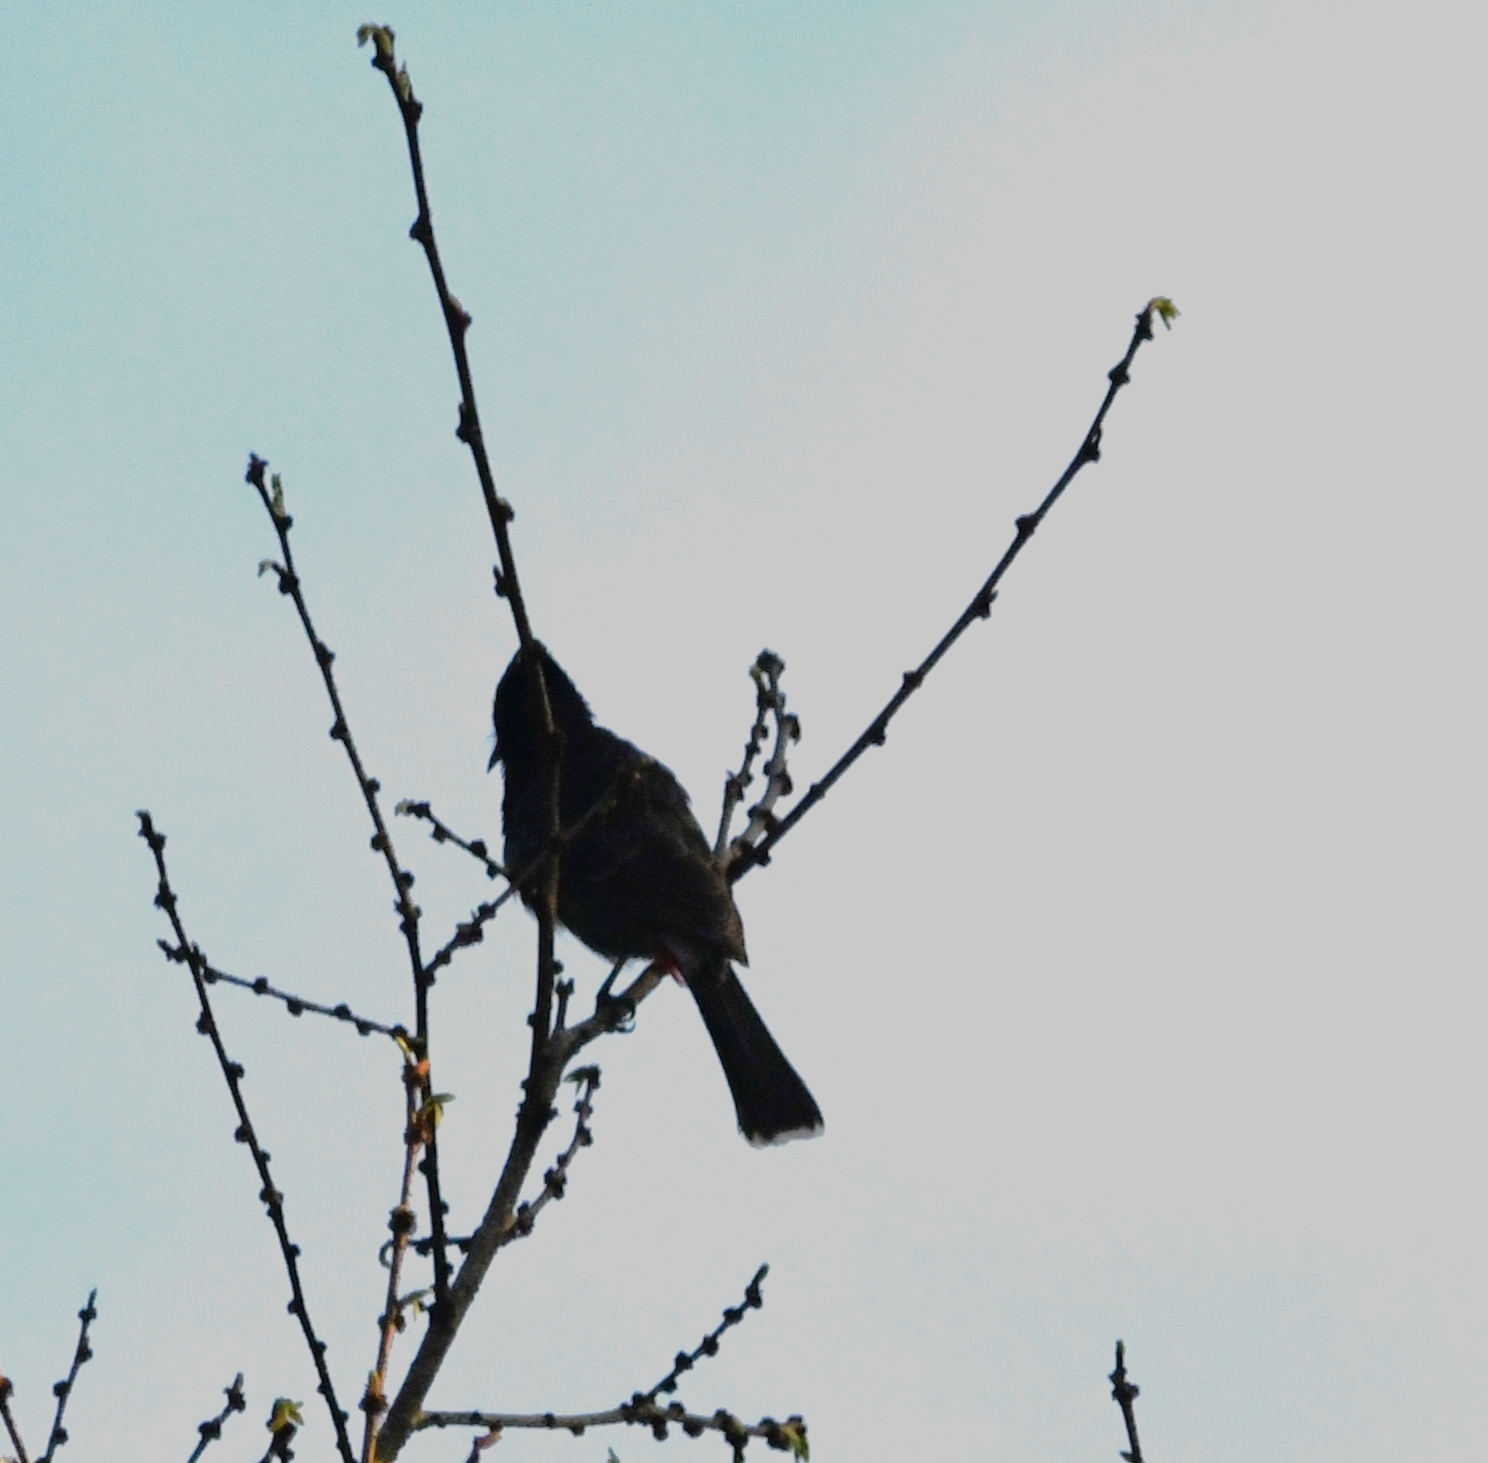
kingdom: Animalia
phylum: Chordata
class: Aves
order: Passeriformes
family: Pycnonotidae
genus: Pycnonotus
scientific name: Pycnonotus cafer
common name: Red-vented bulbul
